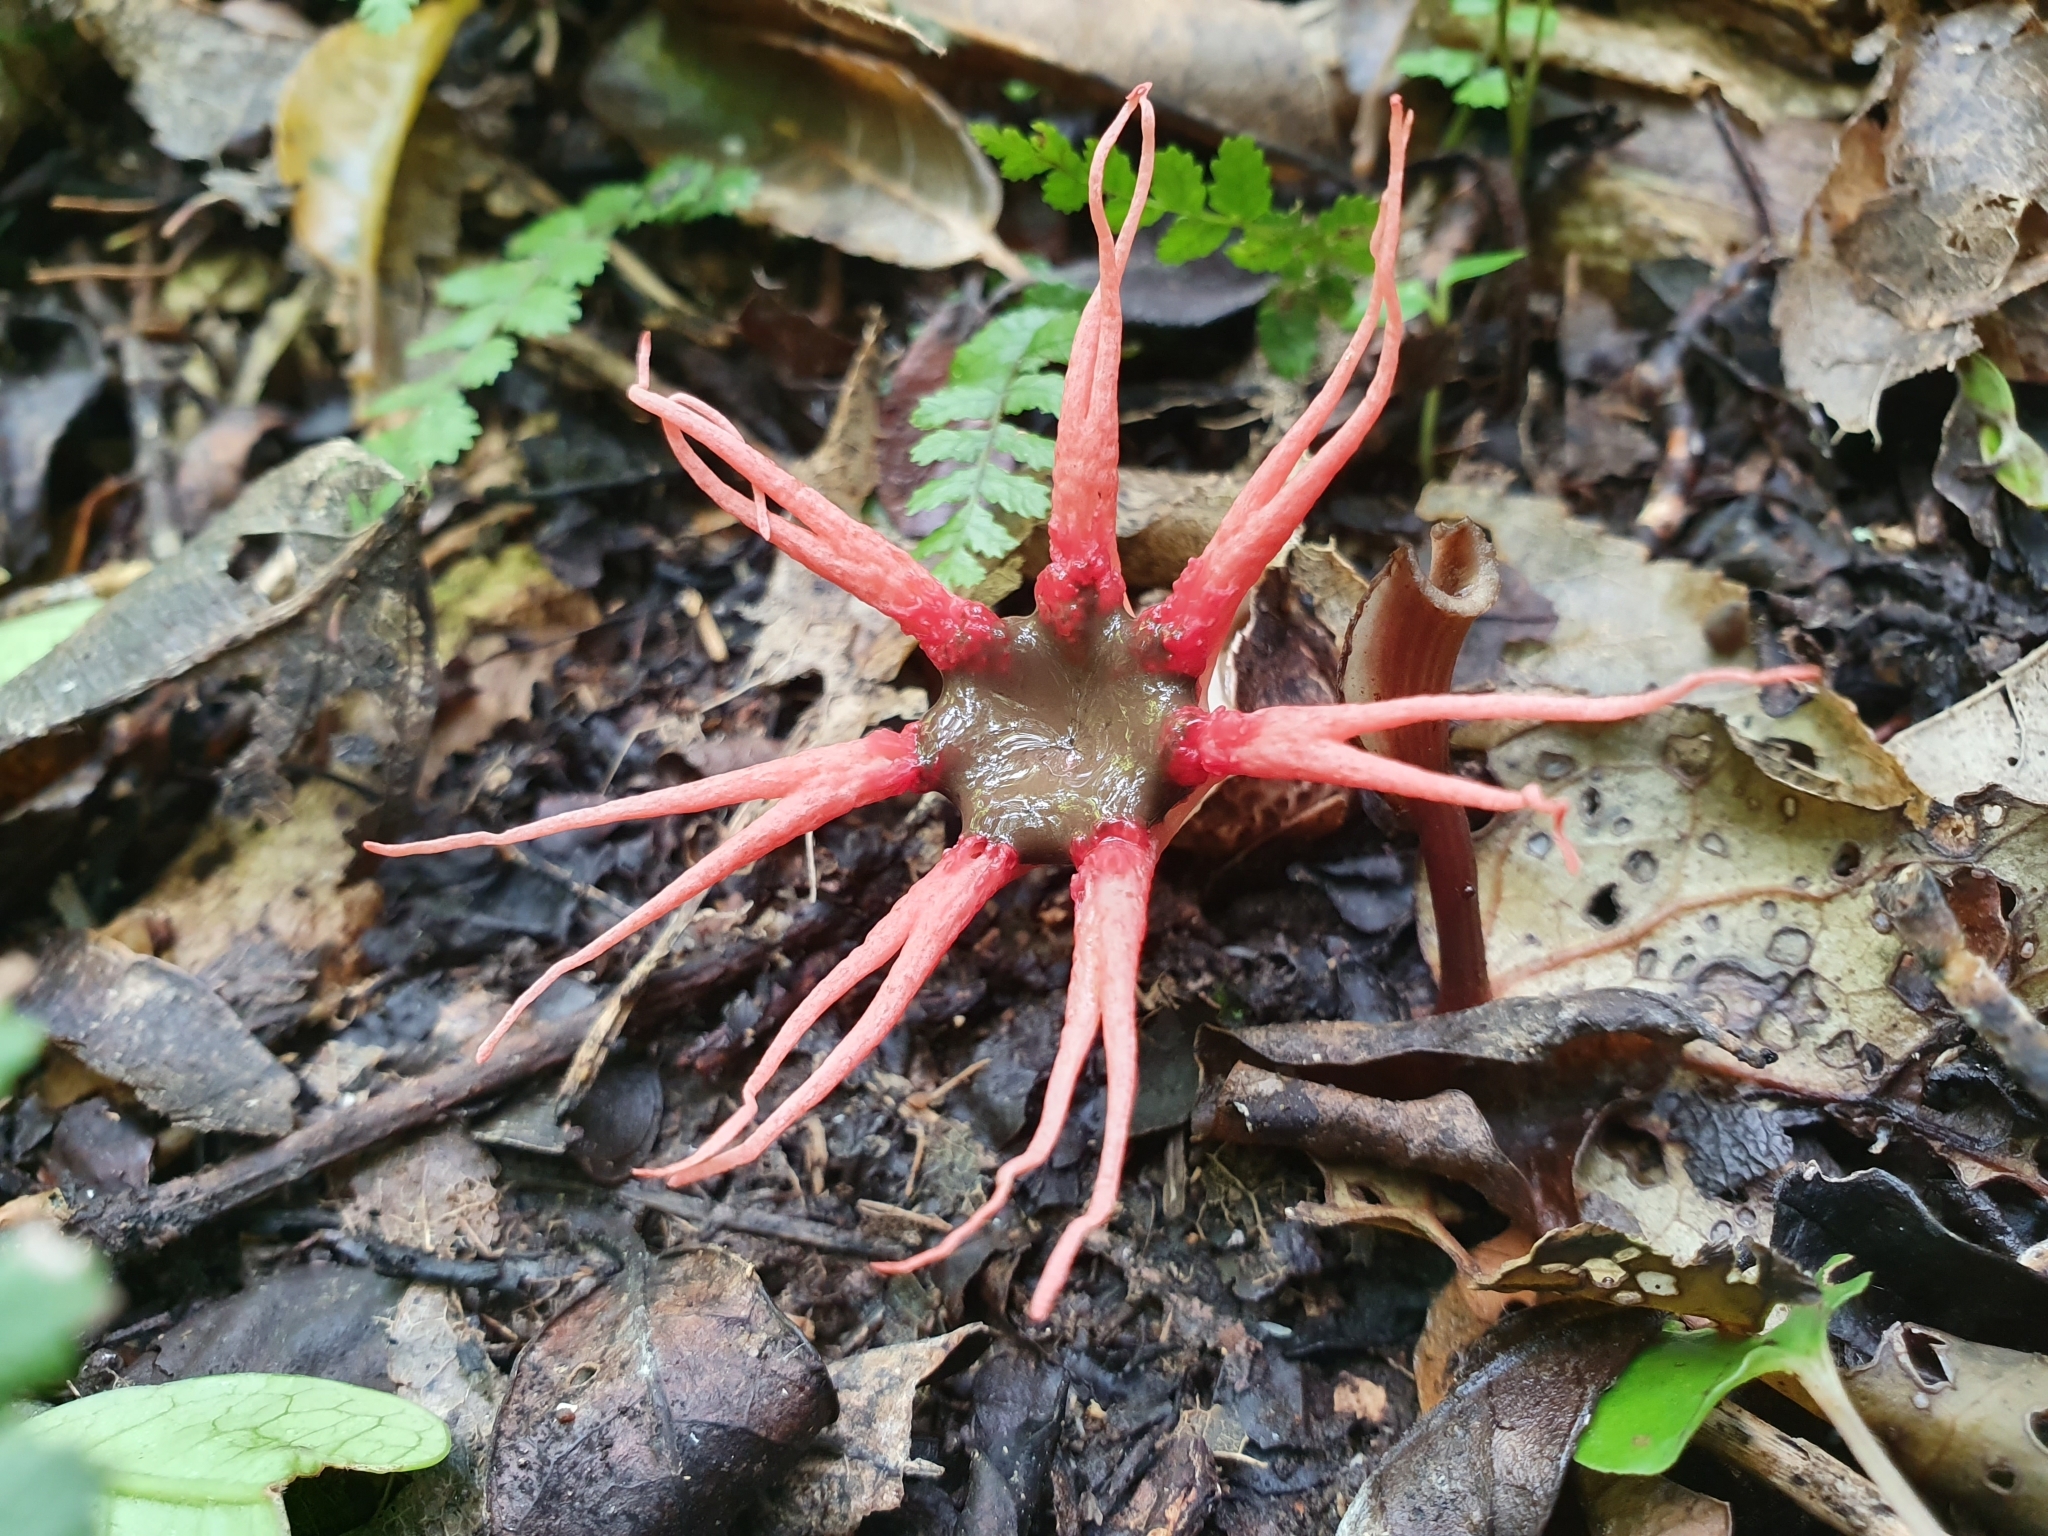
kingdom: Fungi
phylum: Basidiomycota
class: Agaricomycetes
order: Phallales
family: Phallaceae
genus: Aseroe
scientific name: Aseroe rubra
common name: Starfish fungus
